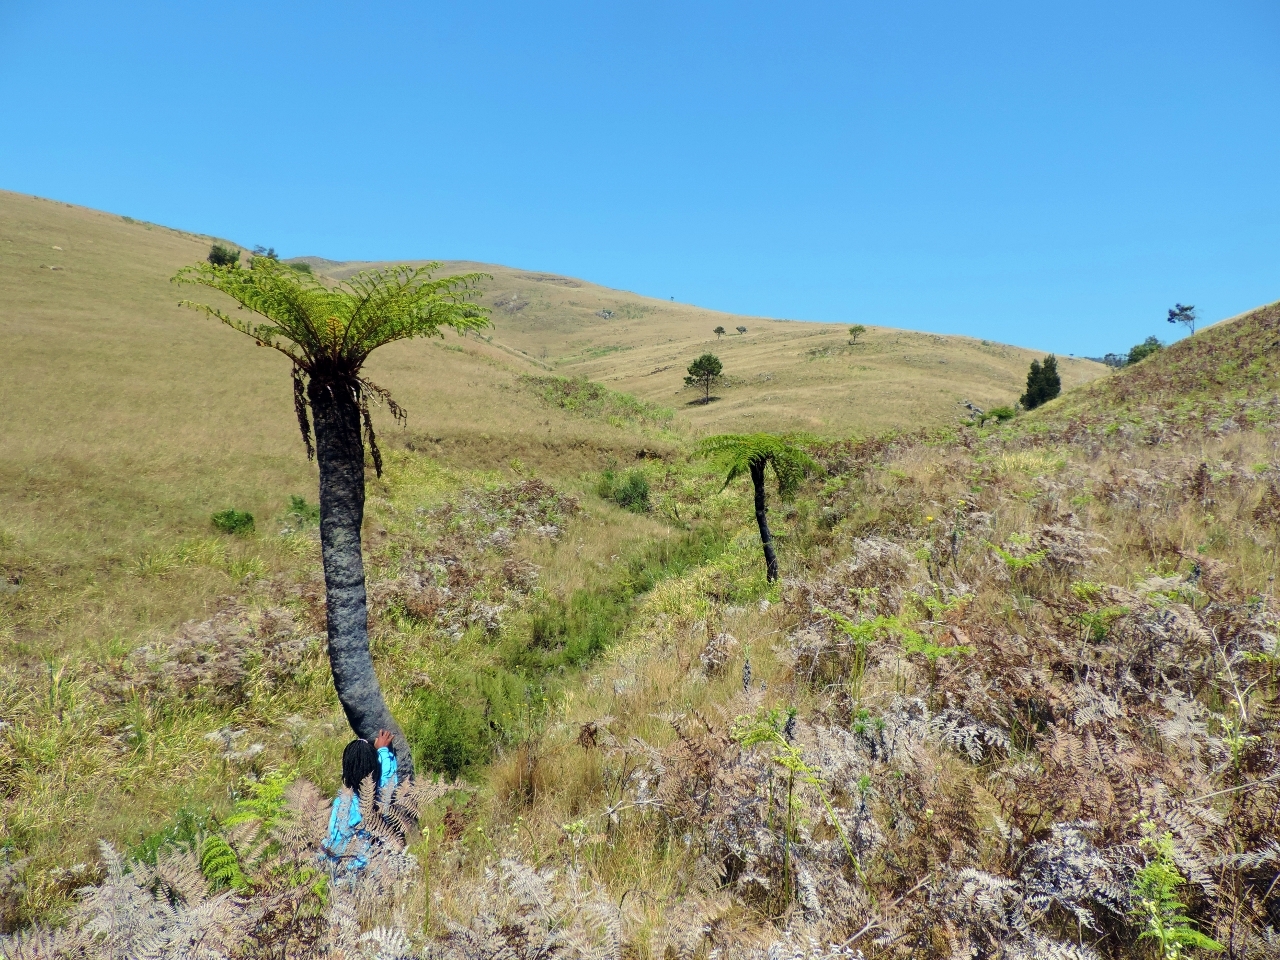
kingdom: Plantae
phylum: Tracheophyta
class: Polypodiopsida
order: Cyatheales
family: Cyatheaceae
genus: Alsophila
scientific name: Alsophila dregei
